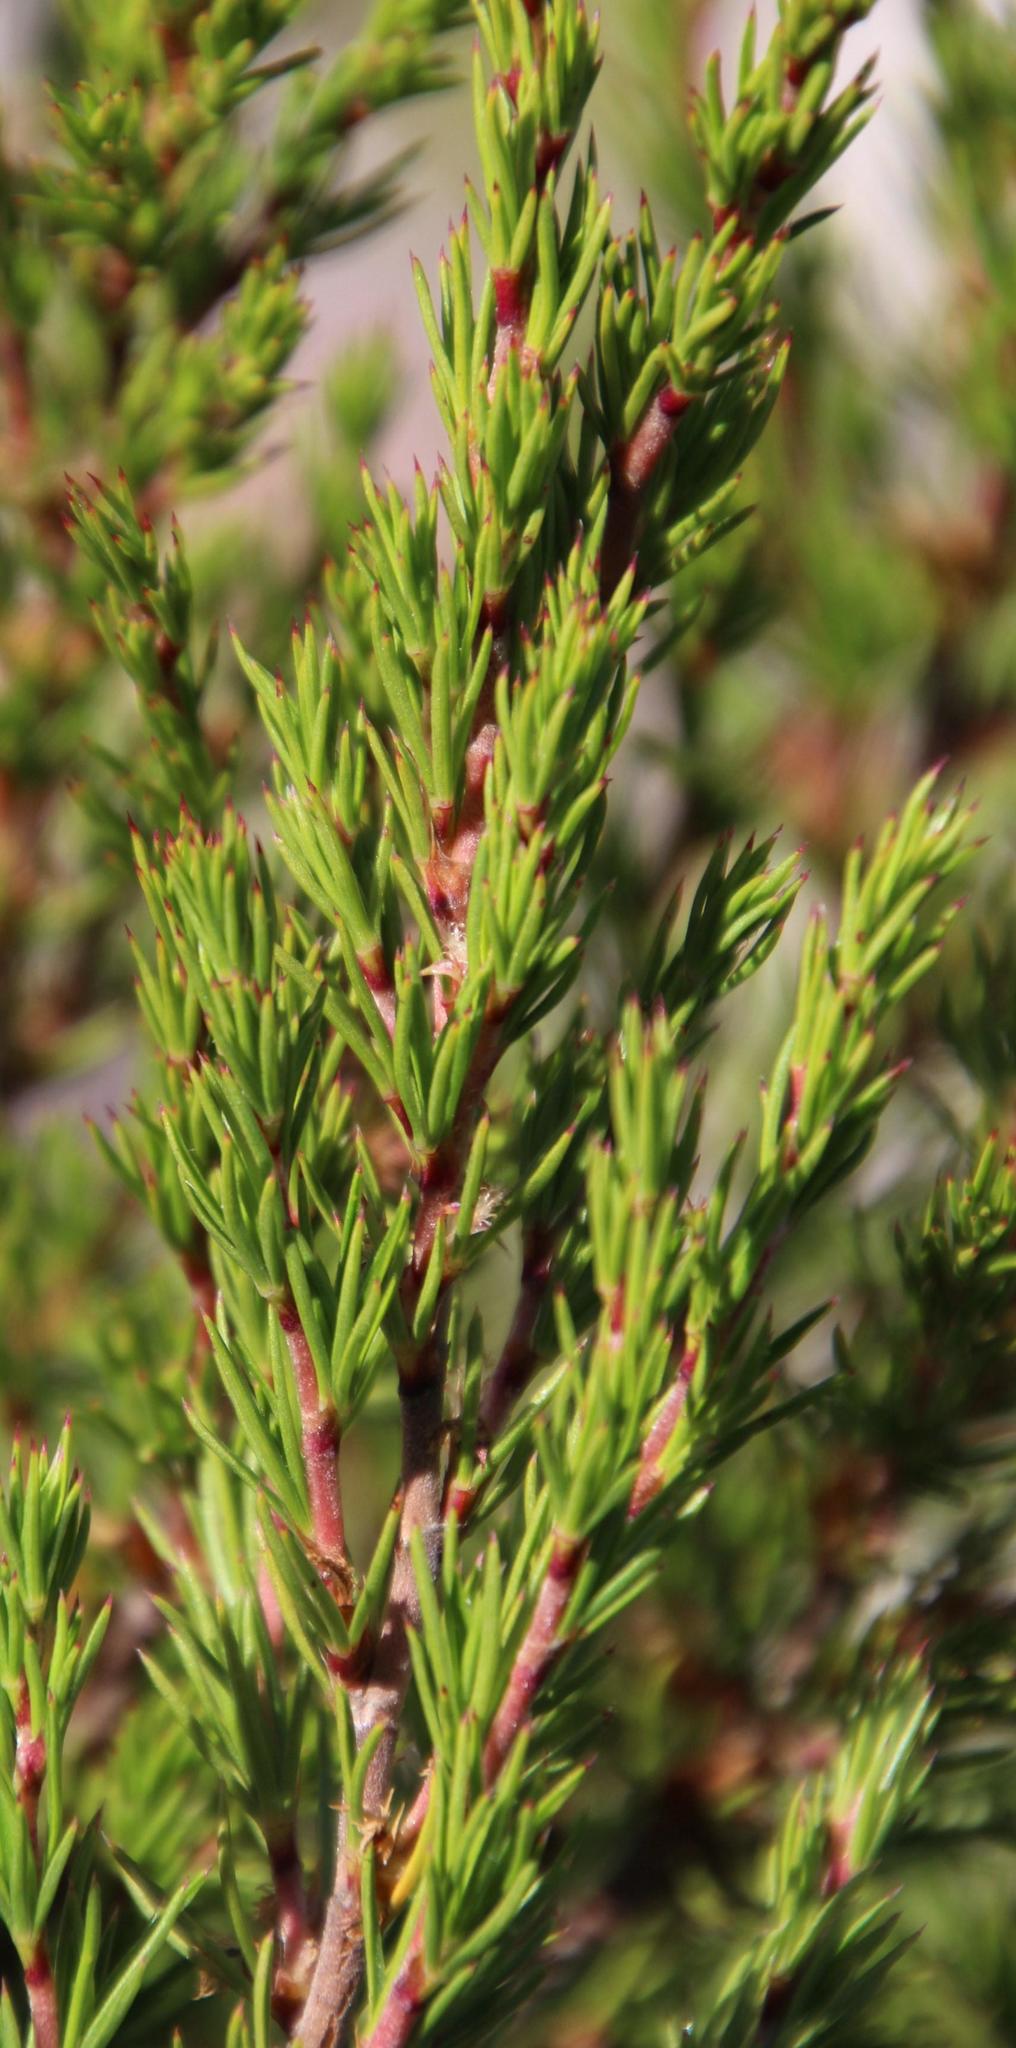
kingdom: Plantae
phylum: Tracheophyta
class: Magnoliopsida
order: Rosales
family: Rosaceae
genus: Cliffortia
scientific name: Cliffortia atrata
